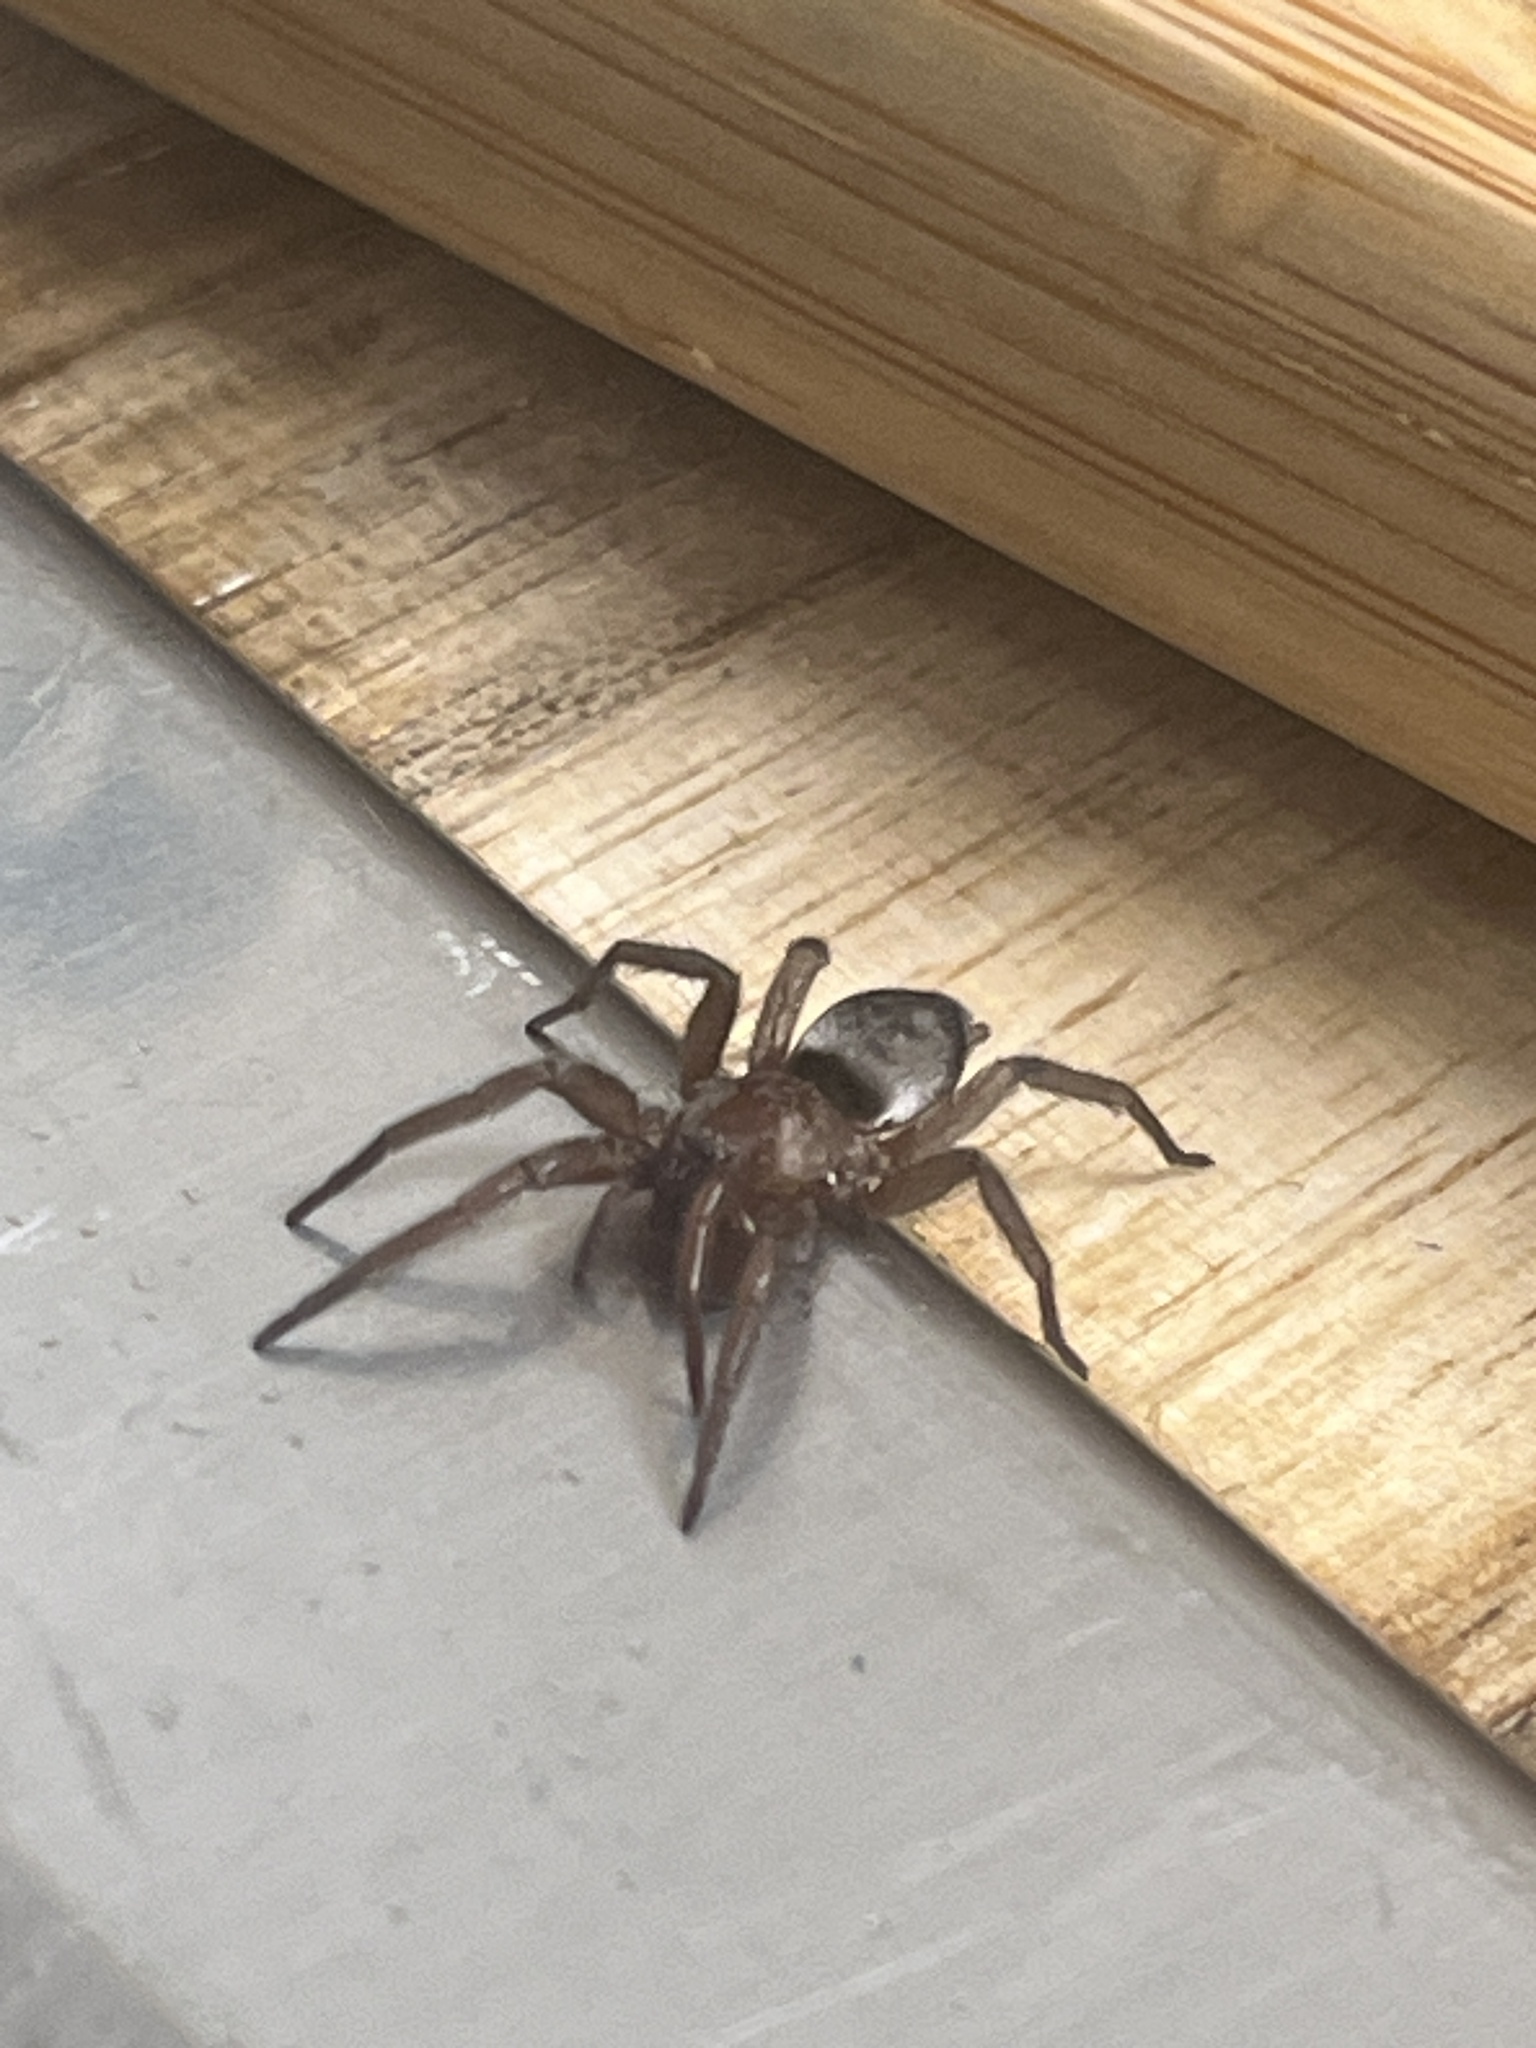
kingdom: Animalia
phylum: Arthropoda
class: Arachnida
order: Araneae
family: Gnaphosidae
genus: Scotophaeus
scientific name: Scotophaeus blackwalli
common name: Mouse spider
